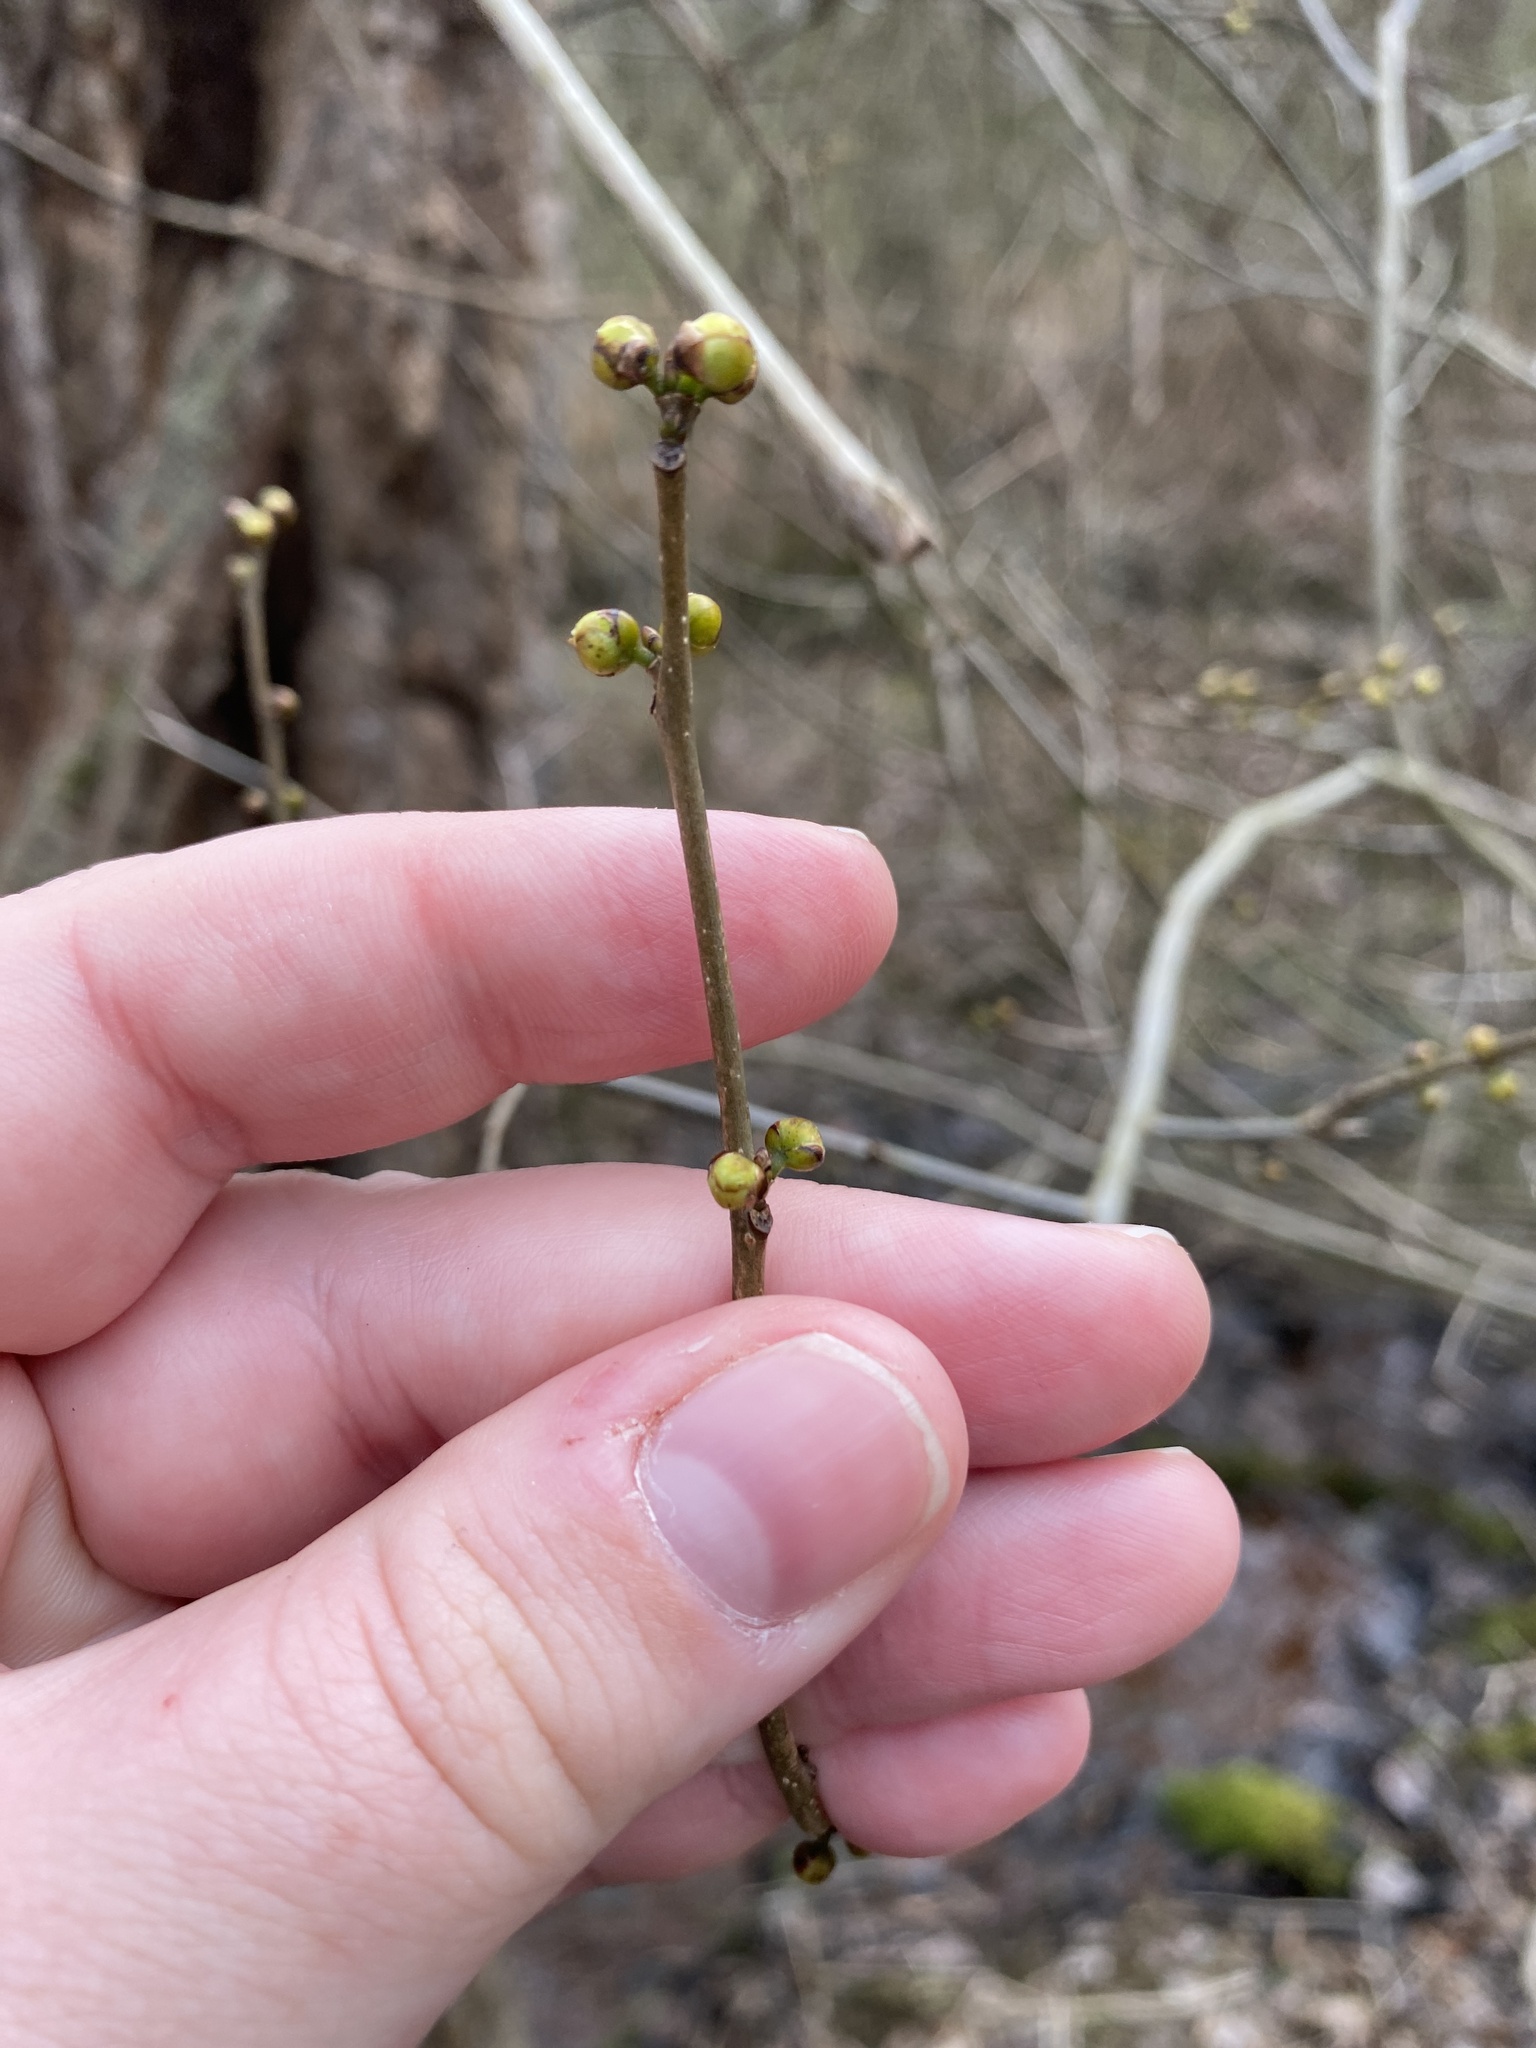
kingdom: Plantae
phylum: Tracheophyta
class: Magnoliopsida
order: Laurales
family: Lauraceae
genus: Lindera
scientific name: Lindera benzoin
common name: Spicebush
